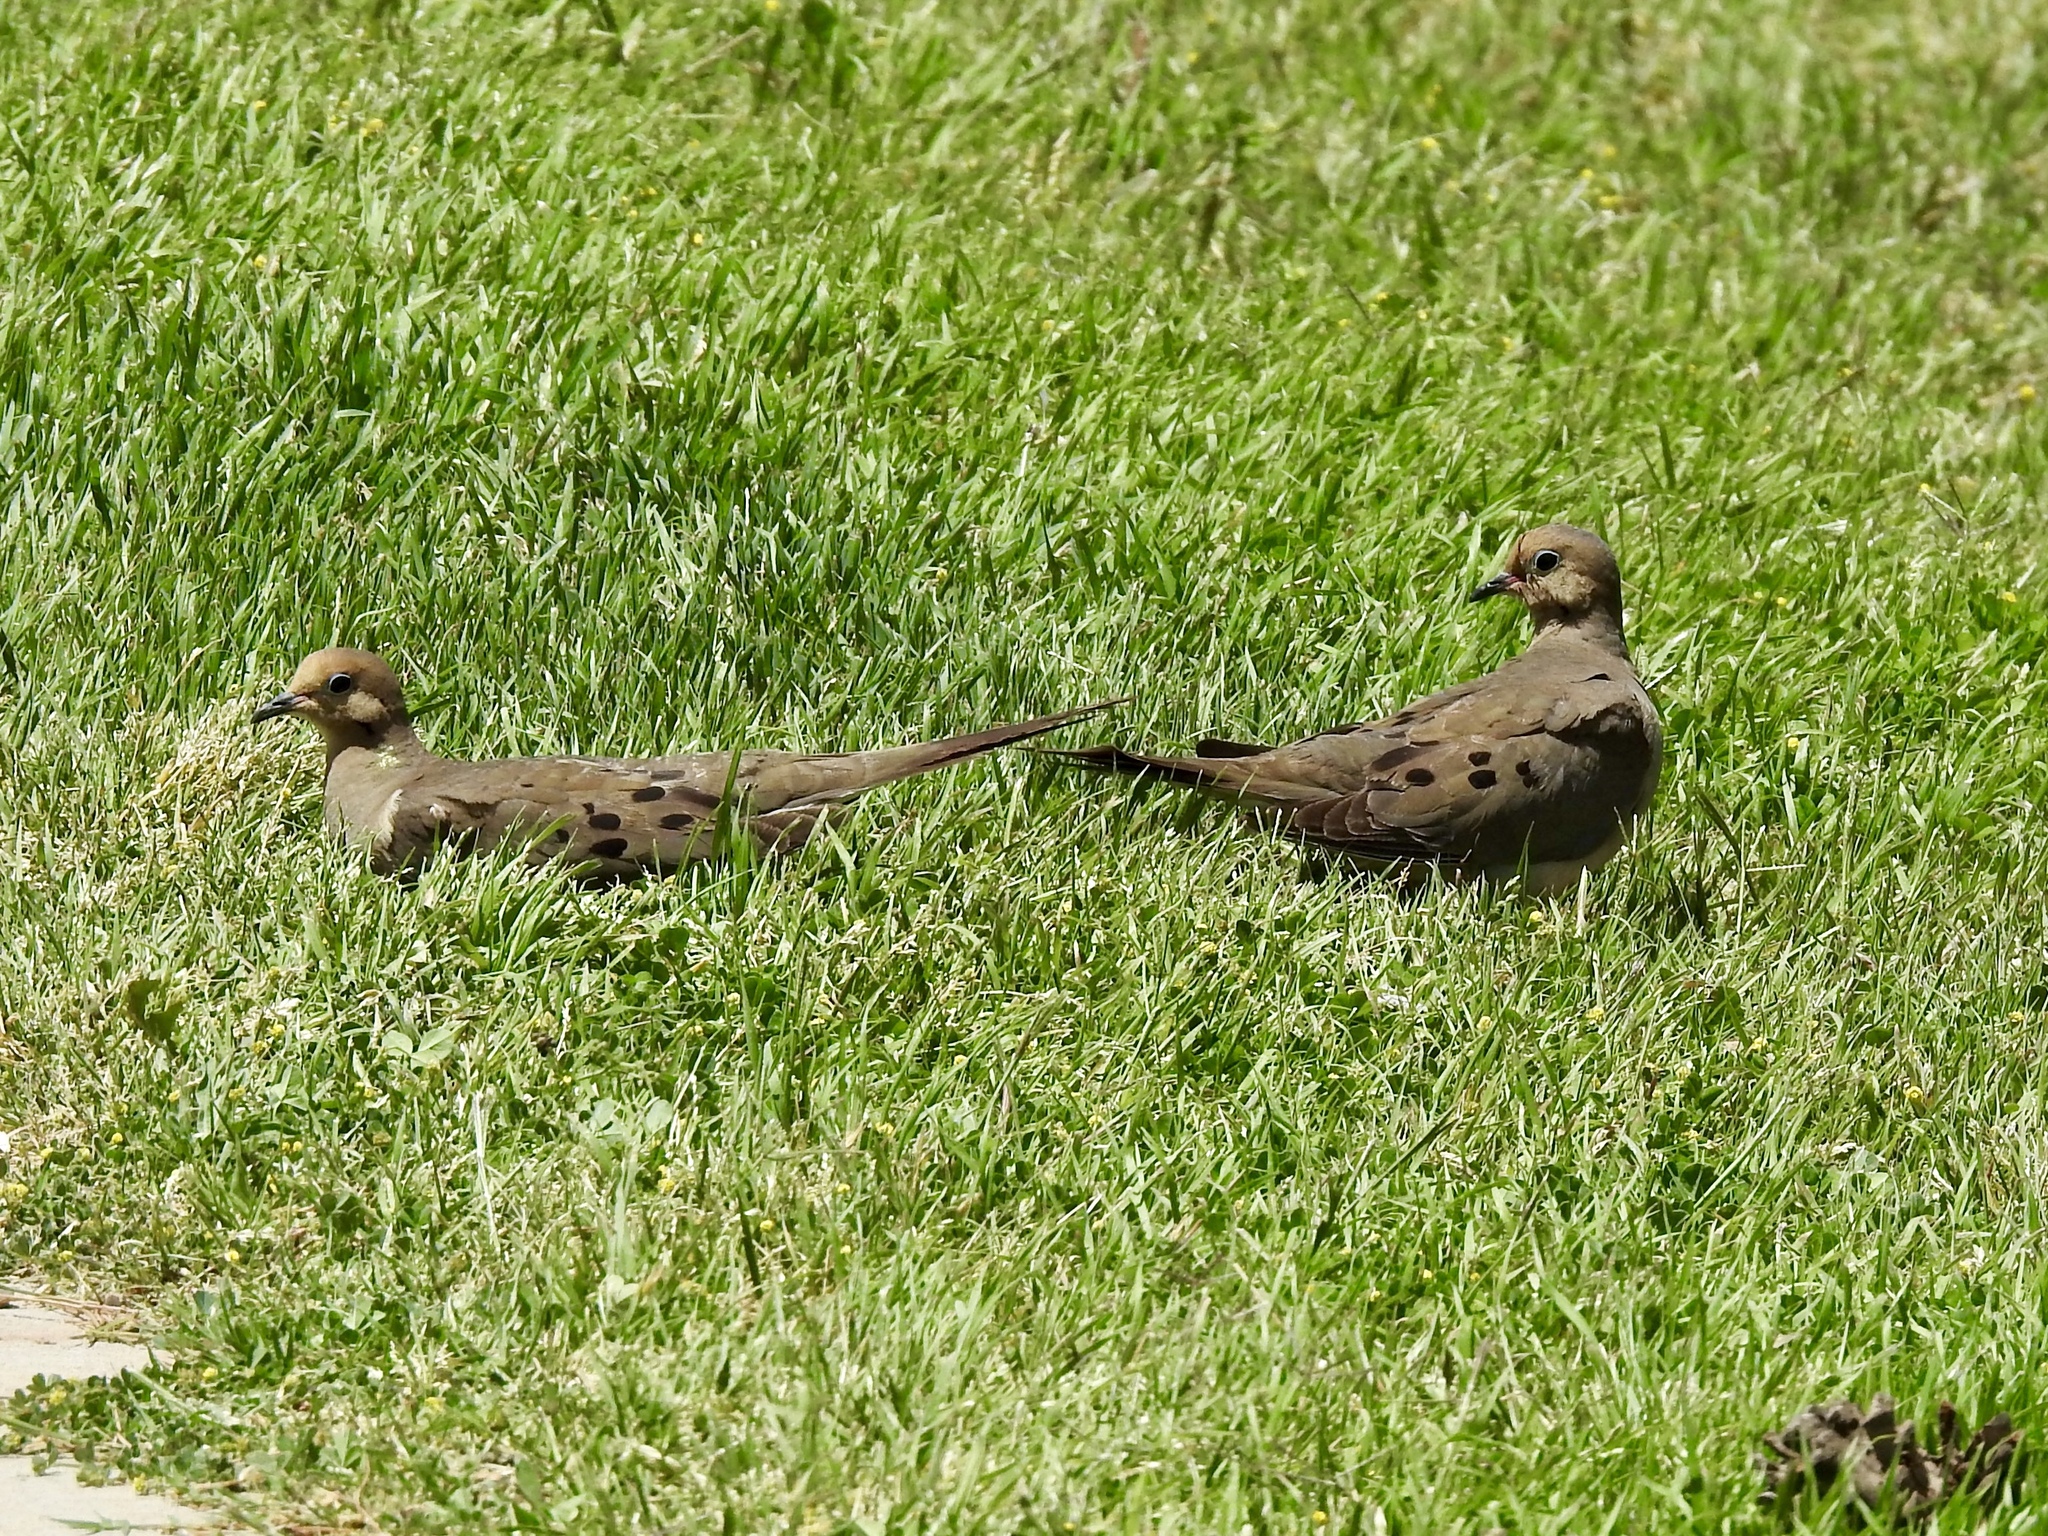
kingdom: Animalia
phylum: Chordata
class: Aves
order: Columbiformes
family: Columbidae
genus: Zenaida
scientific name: Zenaida macroura
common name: Mourning dove
